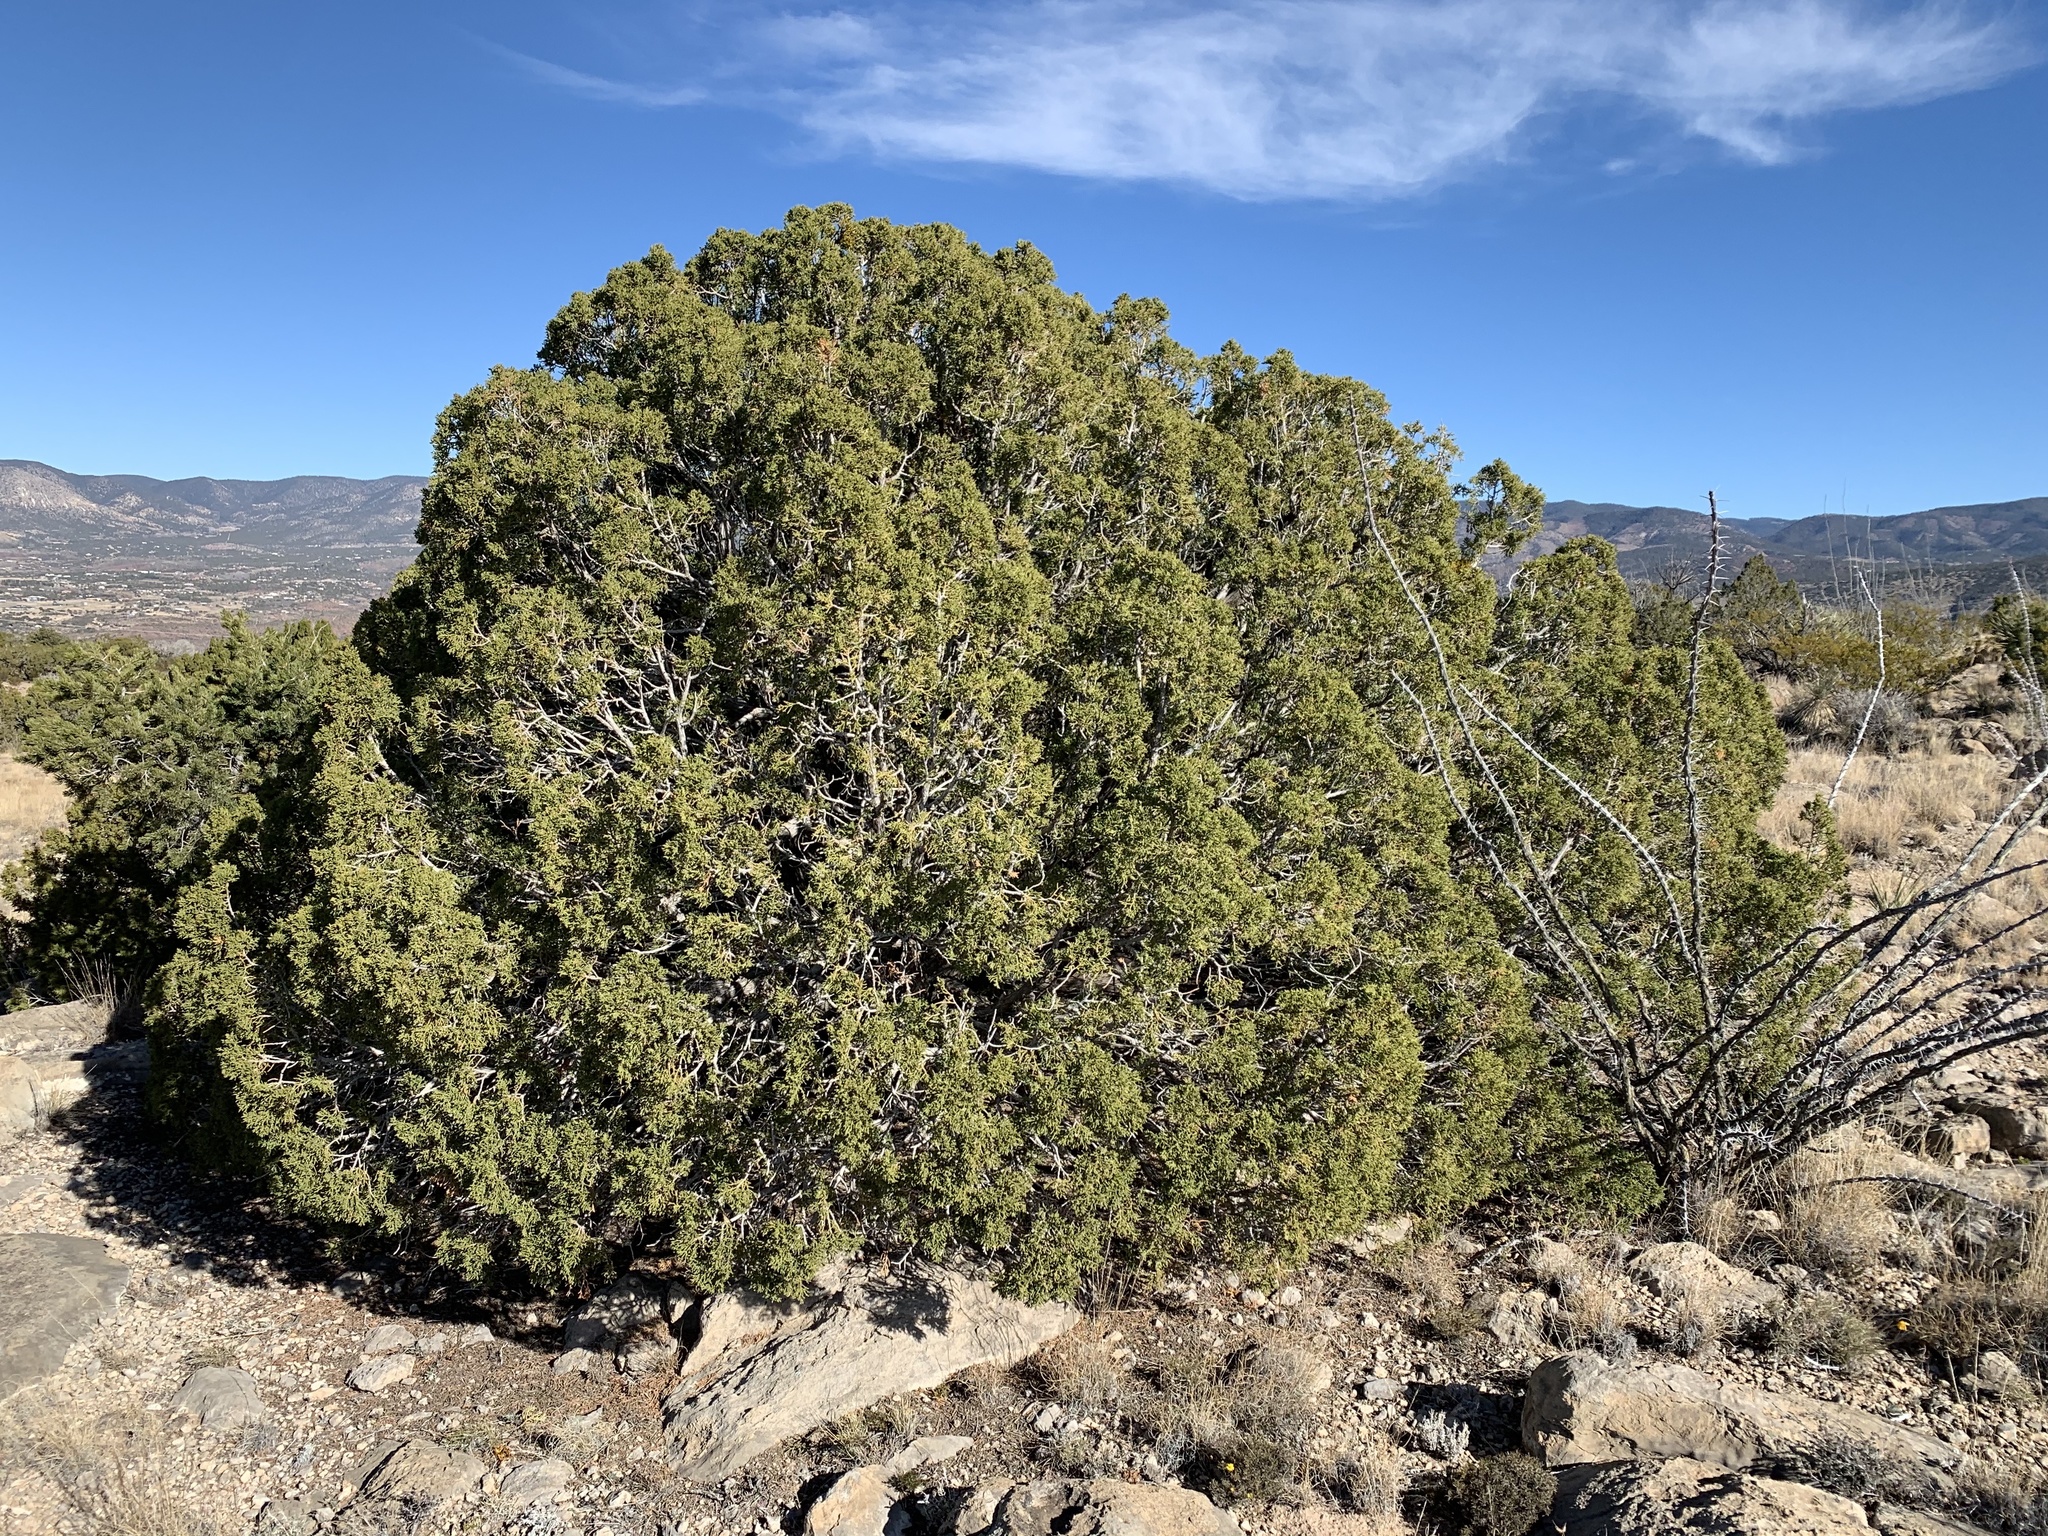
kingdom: Plantae
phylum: Tracheophyta
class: Pinopsida
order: Pinales
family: Cupressaceae
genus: Juniperus
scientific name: Juniperus monosperma
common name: One-seed juniper
